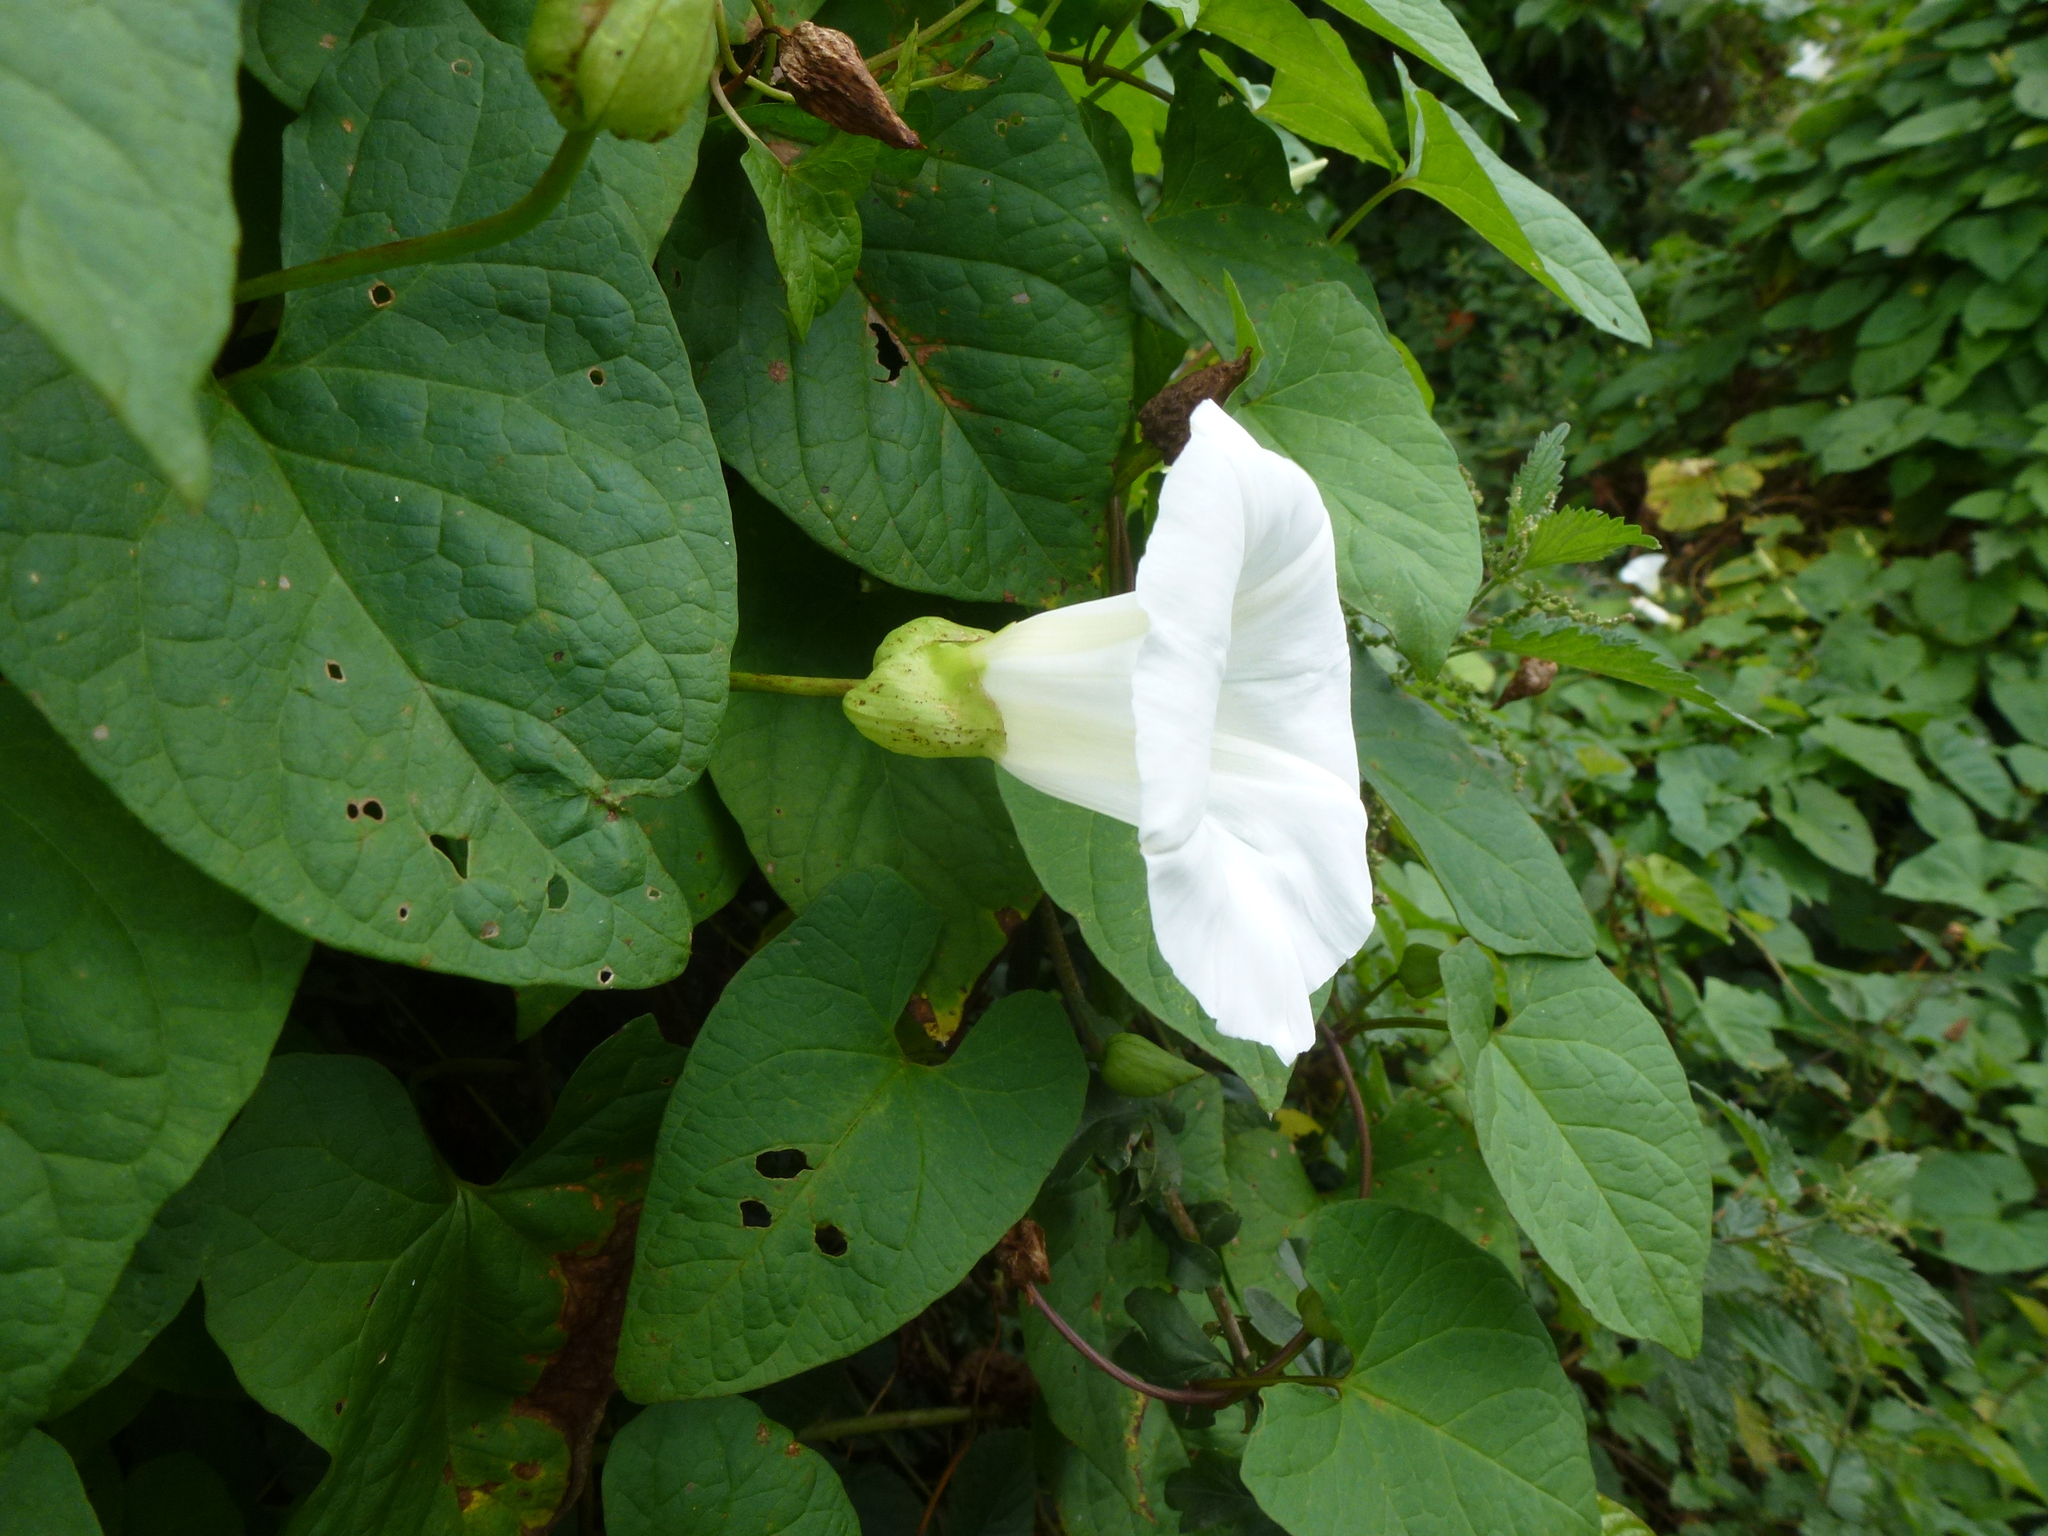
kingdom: Plantae
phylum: Tracheophyta
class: Magnoliopsida
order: Solanales
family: Convolvulaceae
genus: Calystegia
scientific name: Calystegia silvatica
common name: Large bindweed
